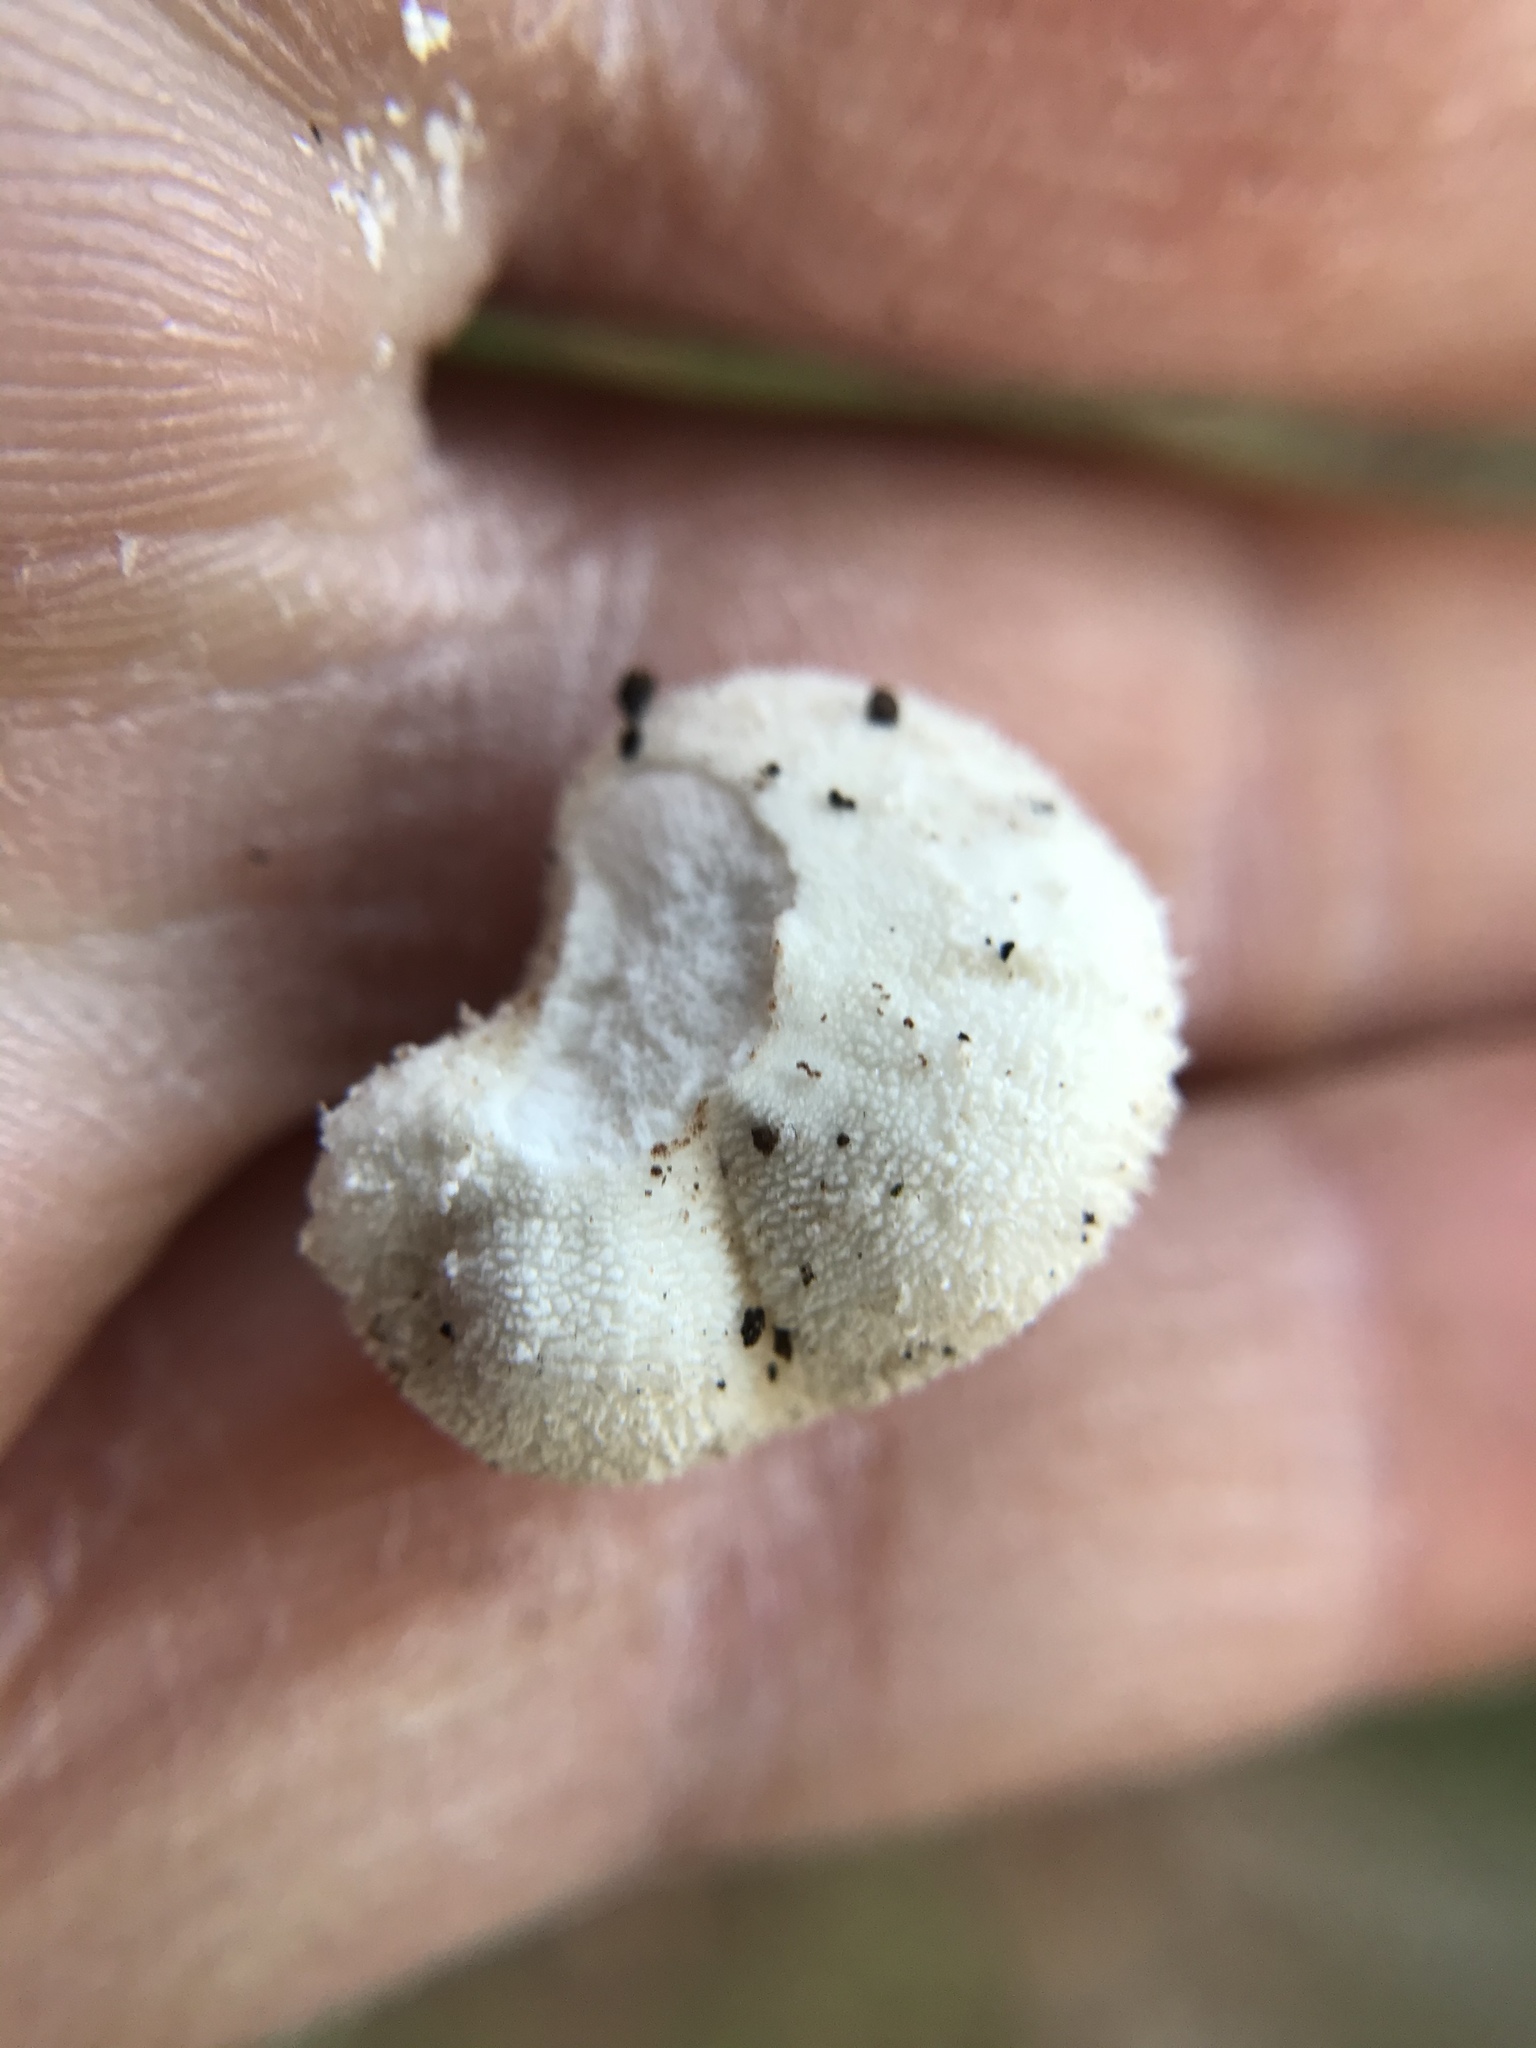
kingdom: Fungi
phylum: Basidiomycota
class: Agaricomycetes
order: Agaricales
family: Lycoperdaceae
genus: Lycoperdon
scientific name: Lycoperdon curtisii
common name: Curtis's puffball
